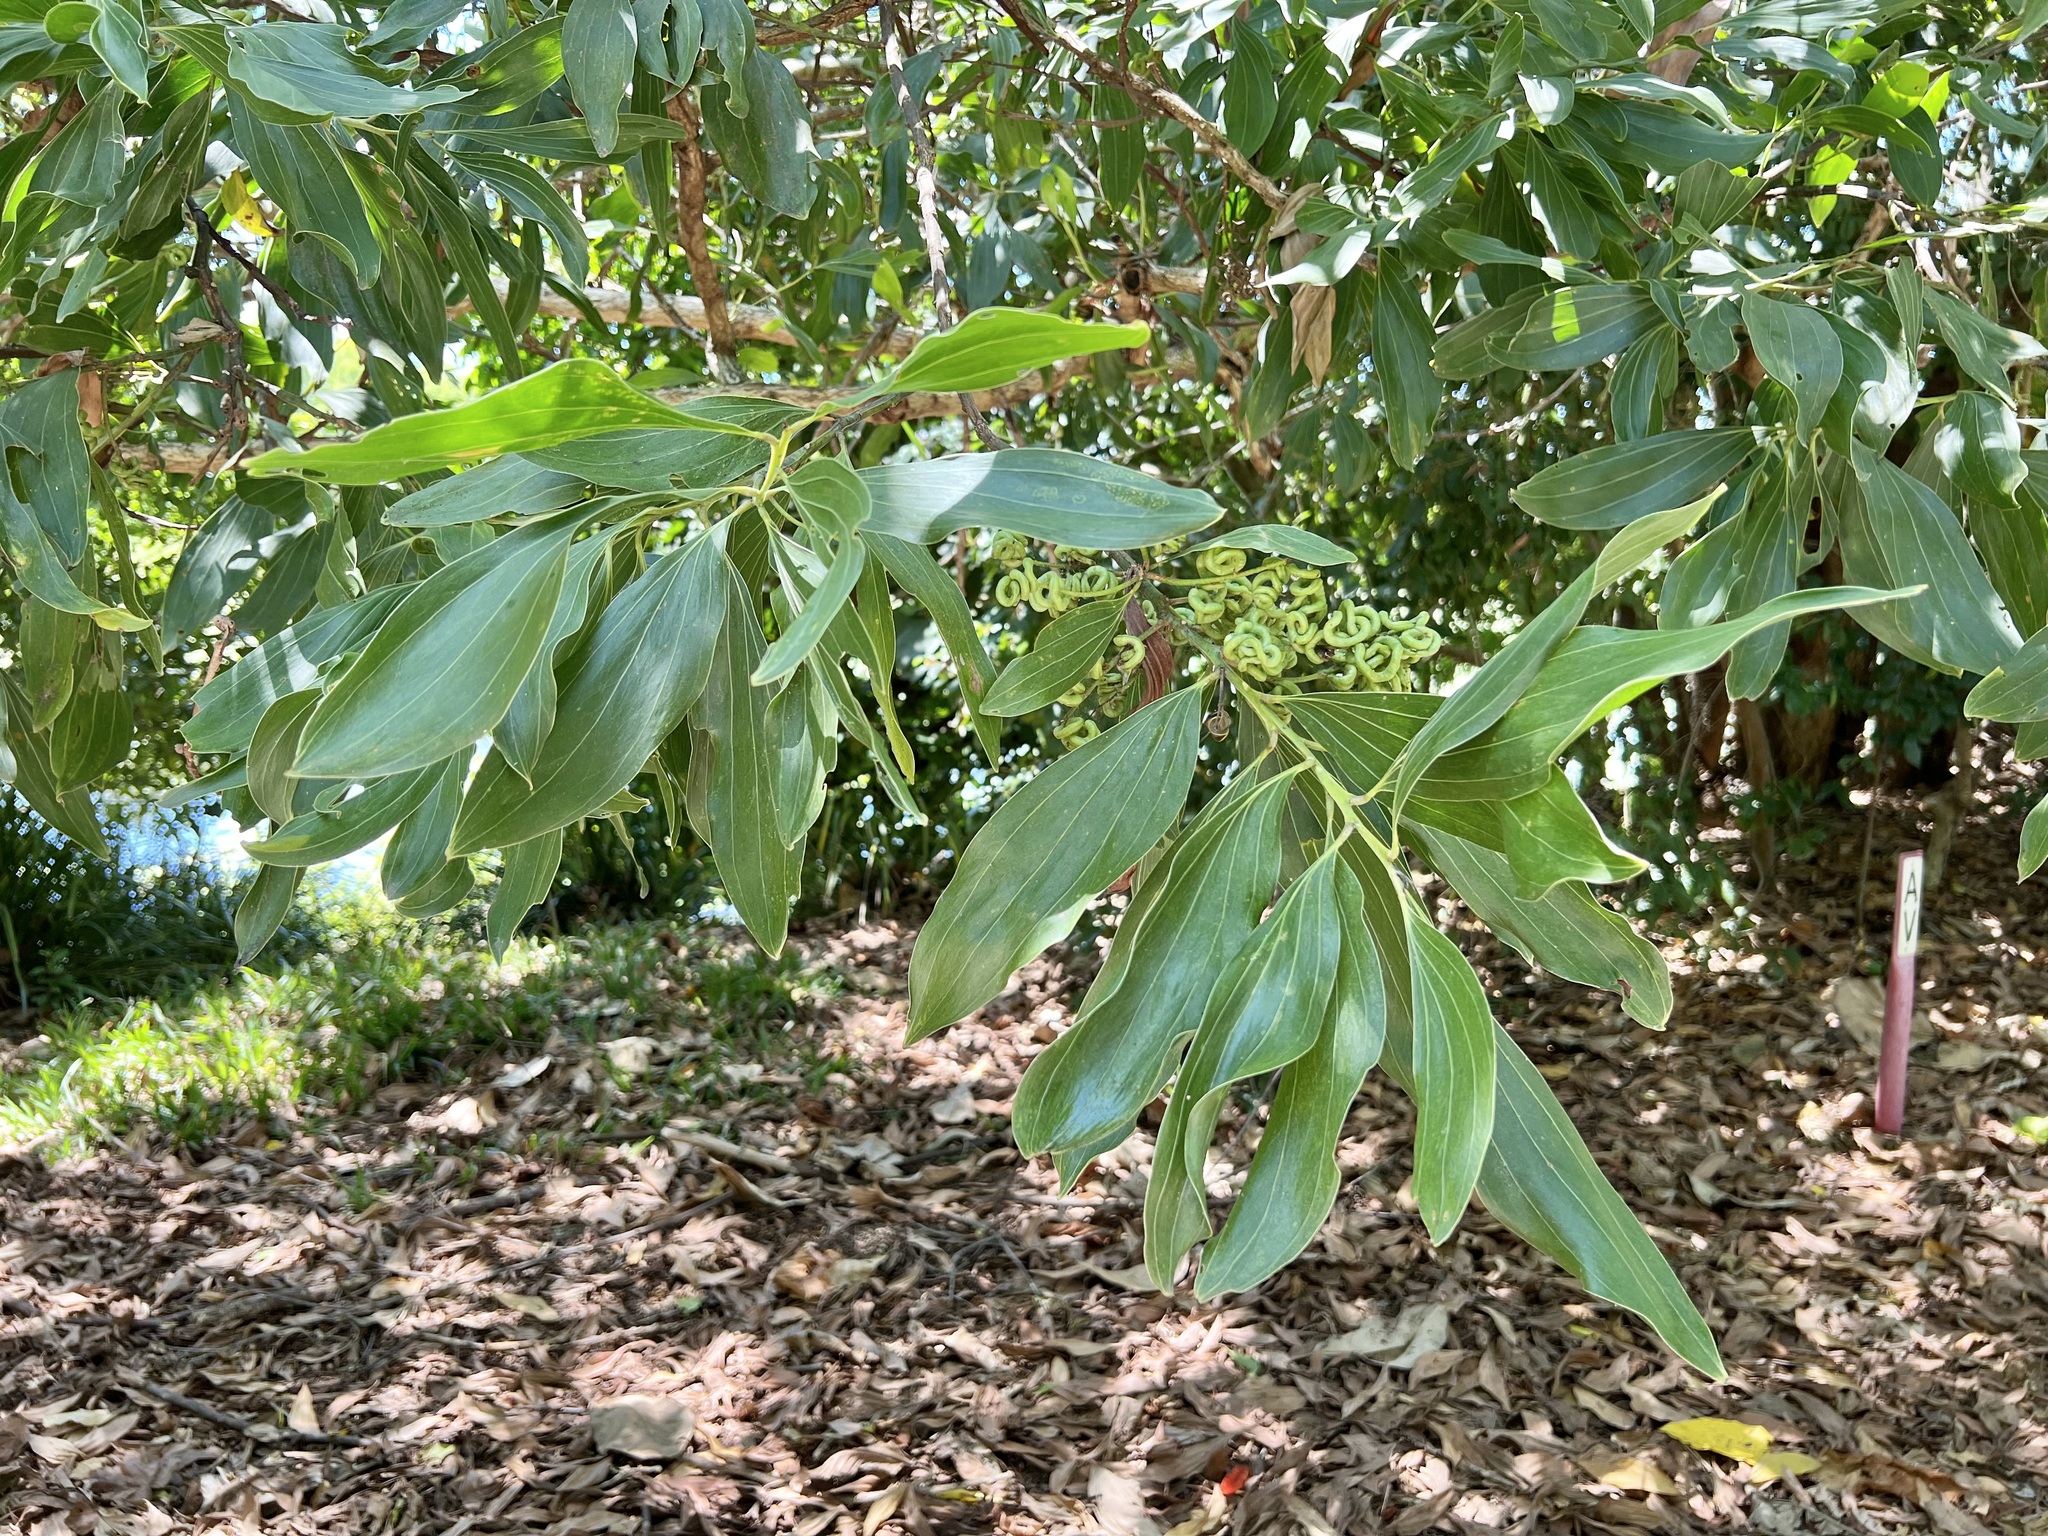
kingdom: Plantae
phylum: Tracheophyta
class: Magnoliopsida
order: Fabales
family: Fabaceae
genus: Acacia
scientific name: Acacia mangium
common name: Black wattle
